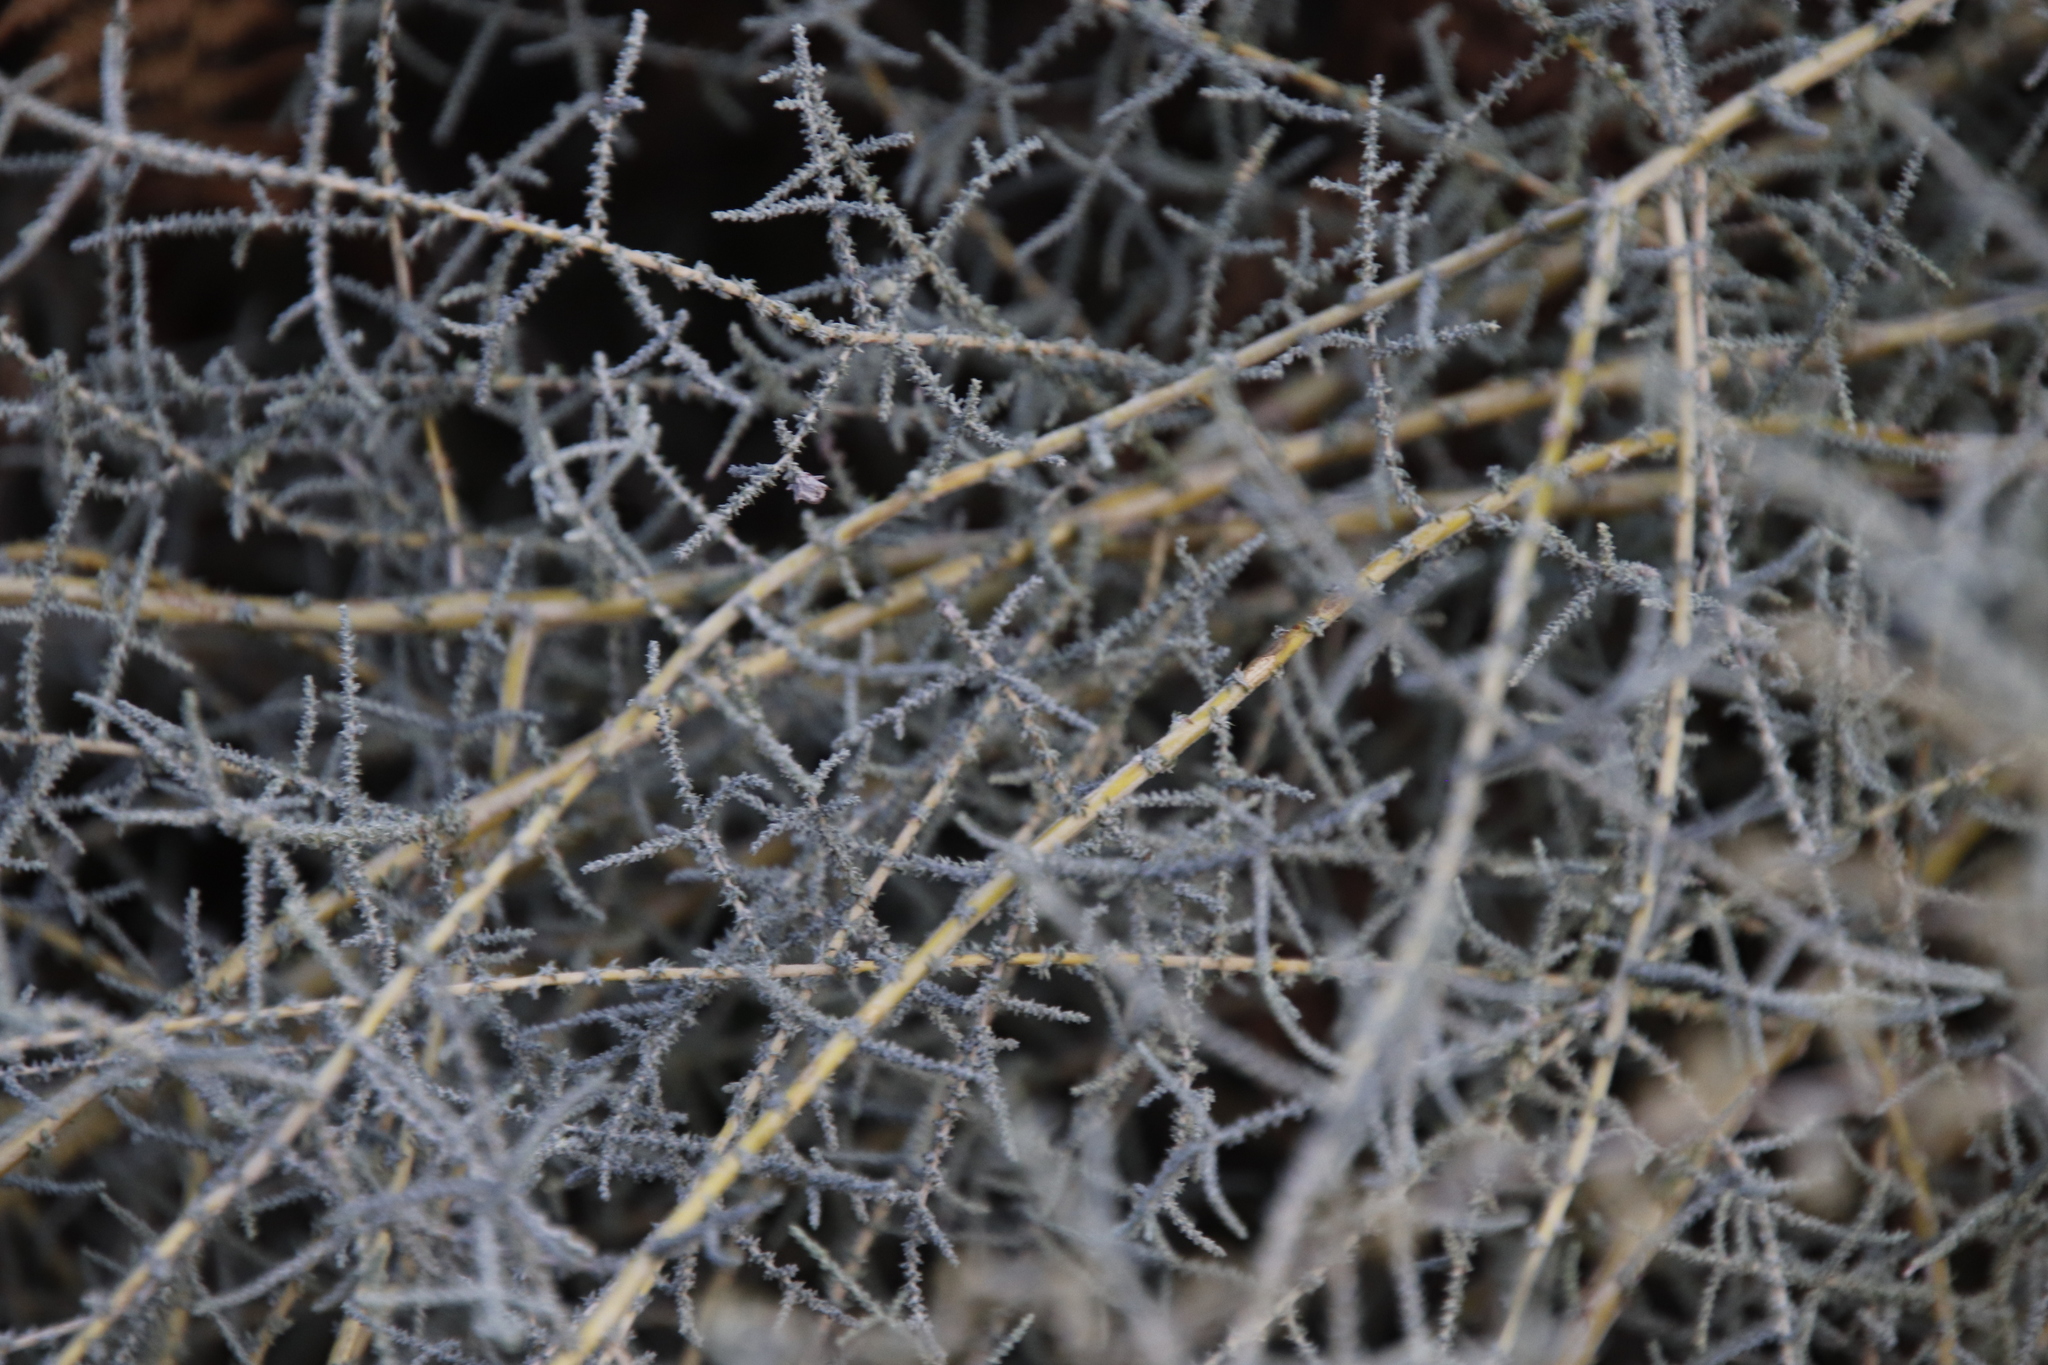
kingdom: Plantae
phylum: Tracheophyta
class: Magnoliopsida
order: Asterales
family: Asteraceae
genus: Seriphium
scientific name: Seriphium plumosum
